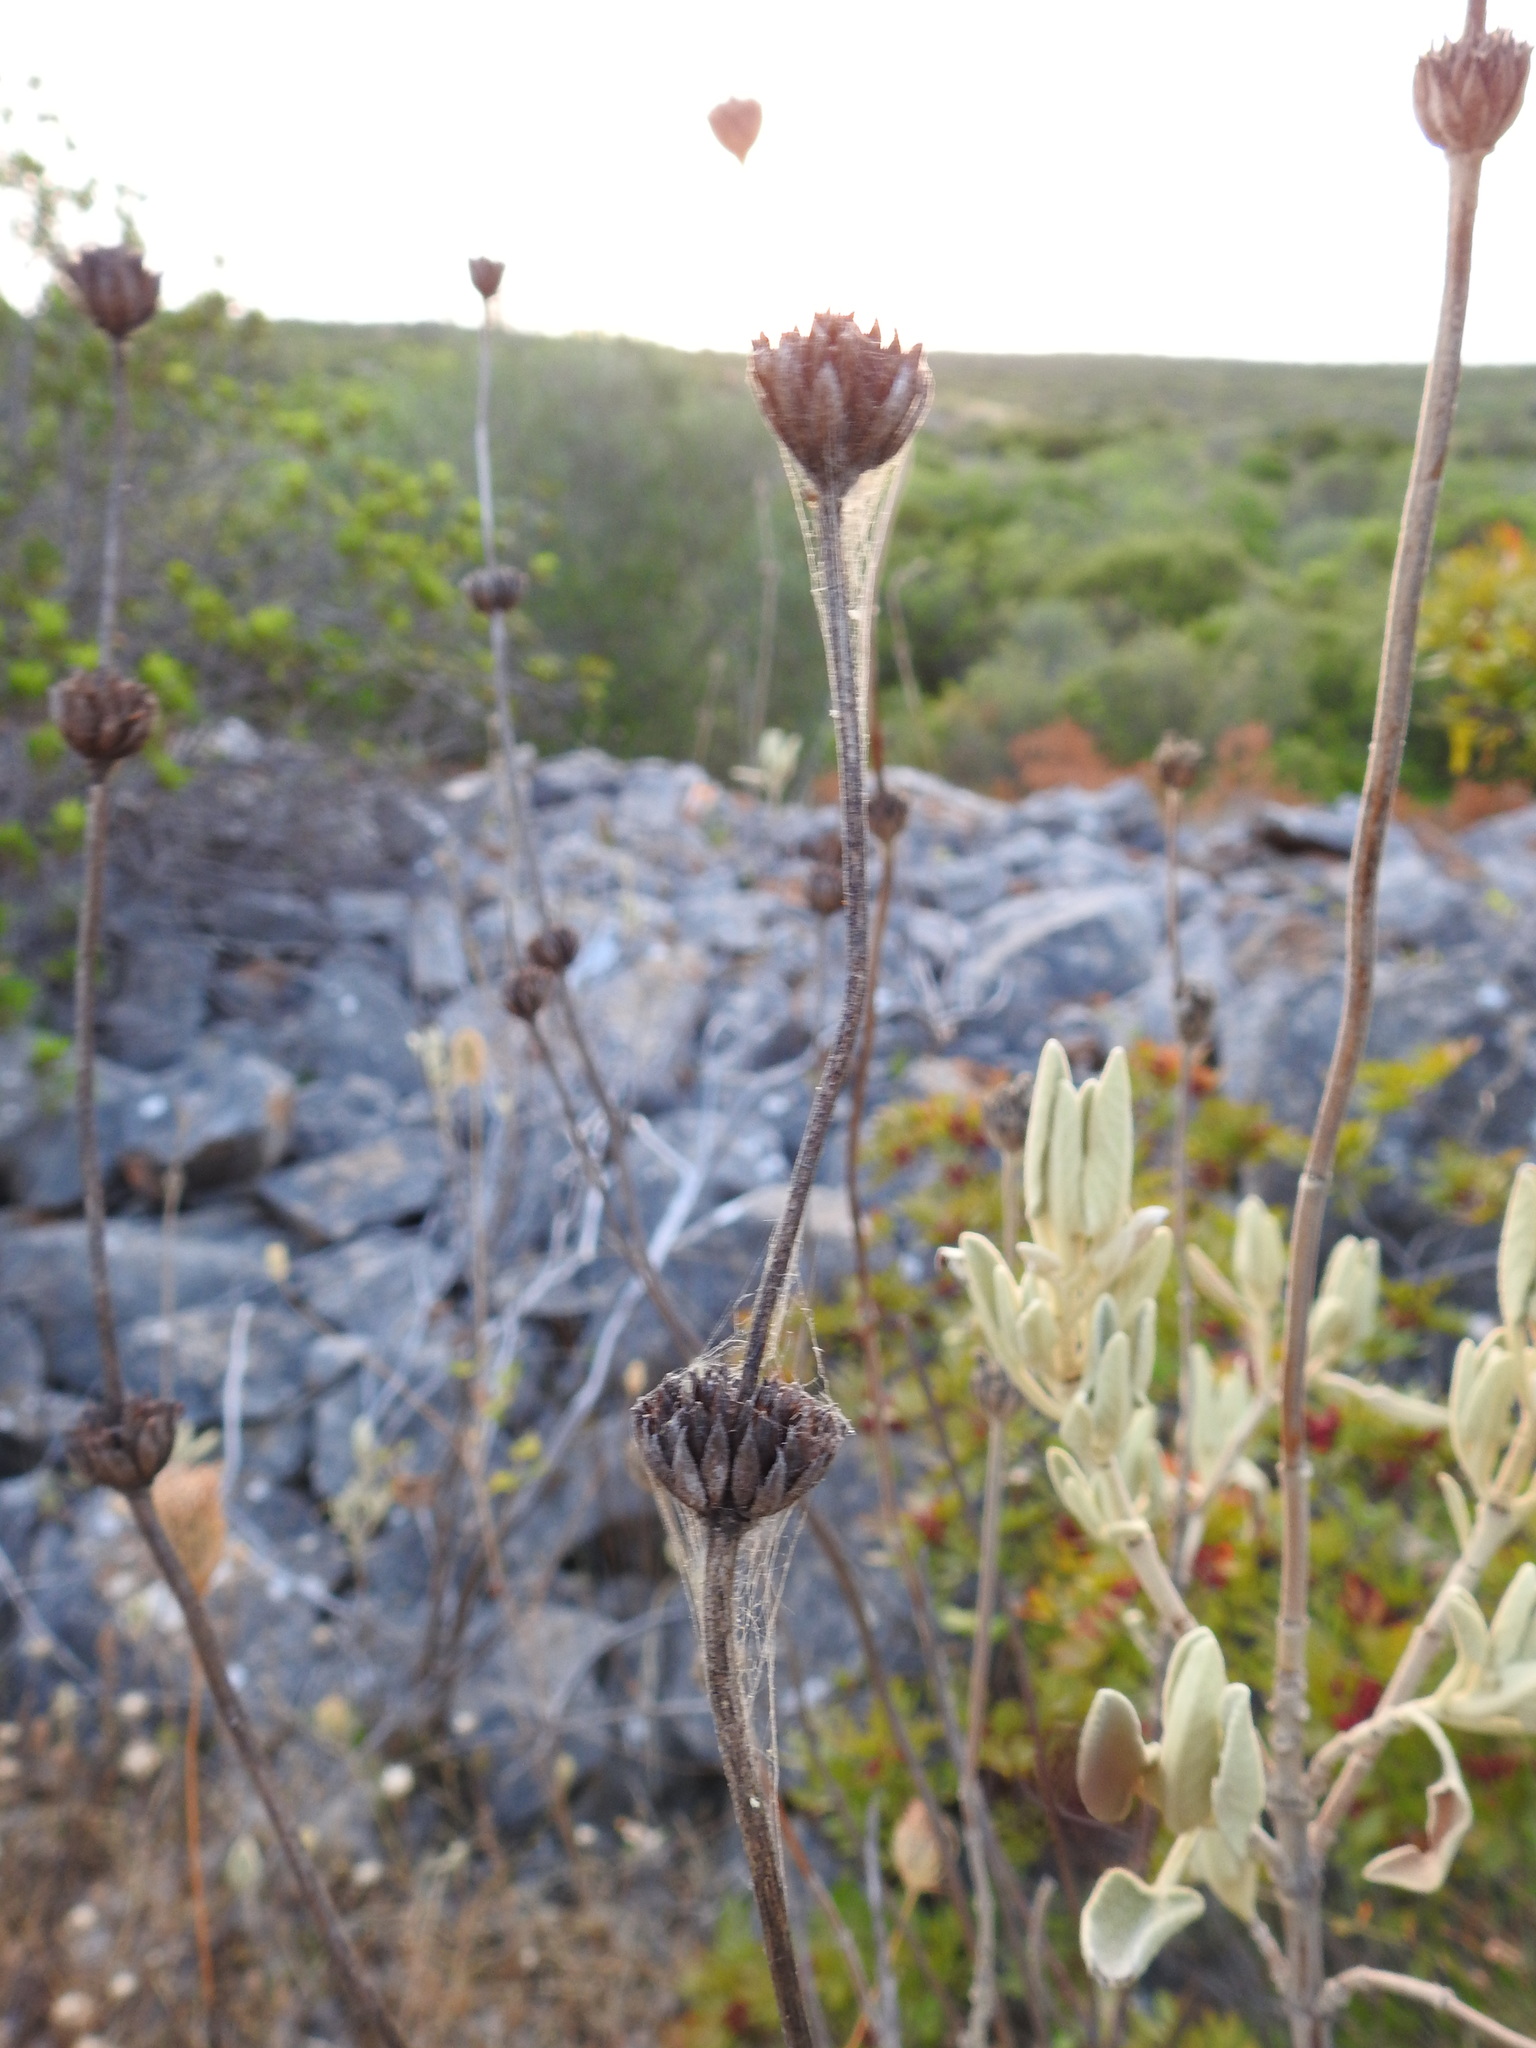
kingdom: Plantae
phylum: Tracheophyta
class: Magnoliopsida
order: Lamiales
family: Lamiaceae
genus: Phlomis
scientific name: Phlomis purpurea
